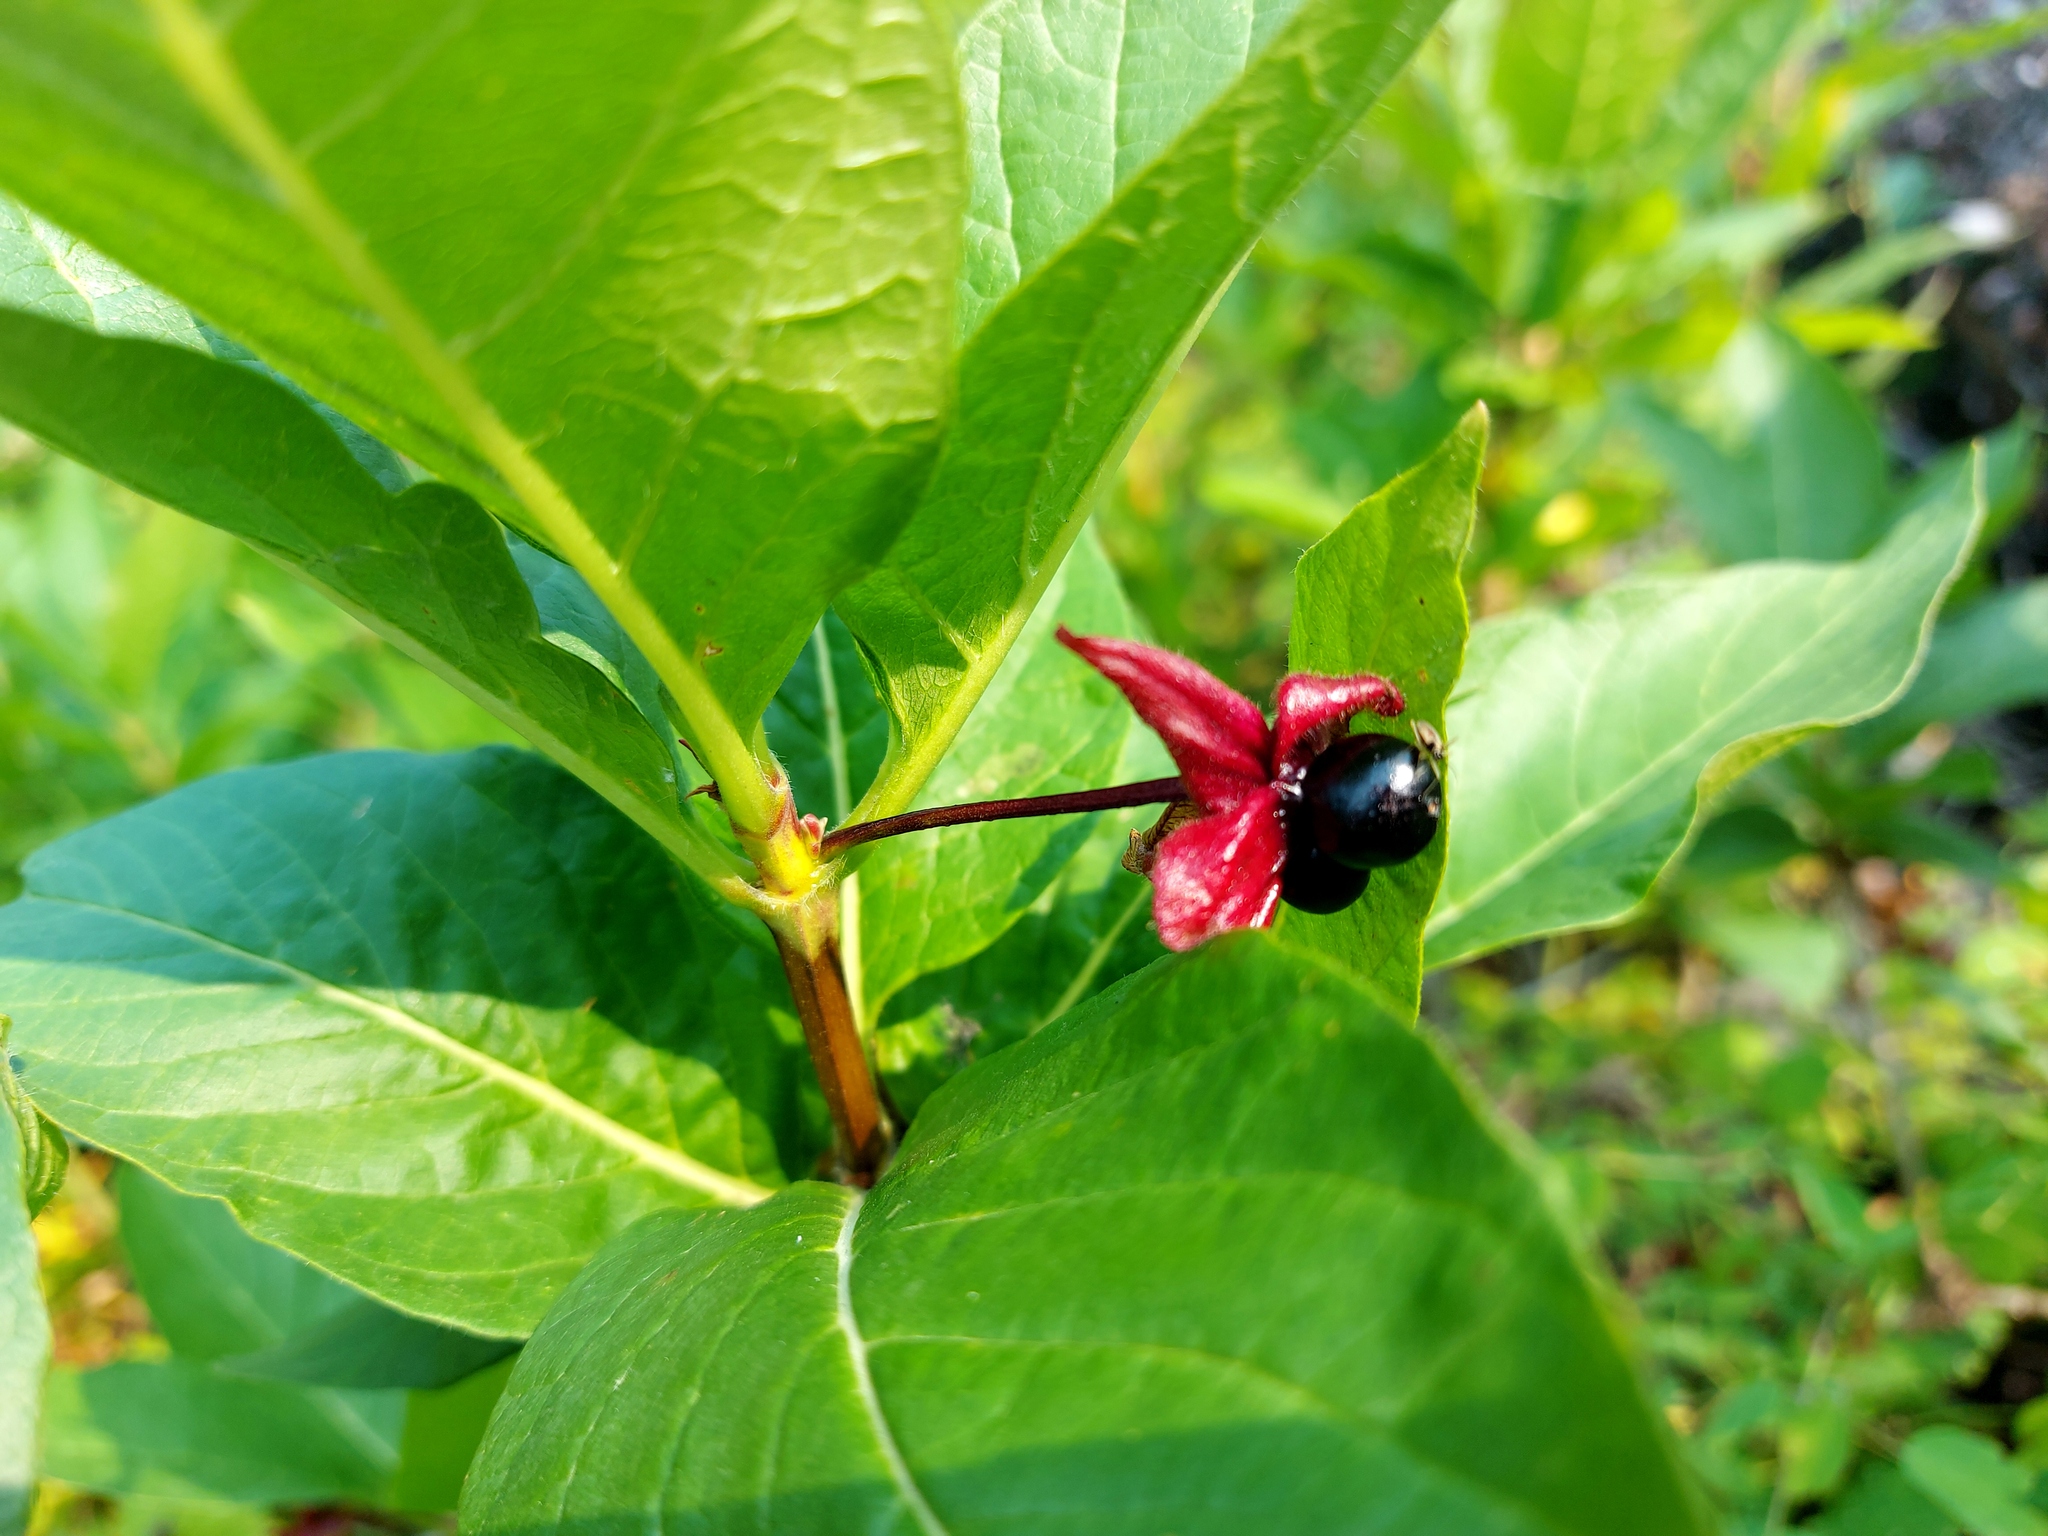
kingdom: Plantae
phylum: Tracheophyta
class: Magnoliopsida
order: Dipsacales
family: Caprifoliaceae
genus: Lonicera
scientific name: Lonicera involucrata
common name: Californian honeysuckle
